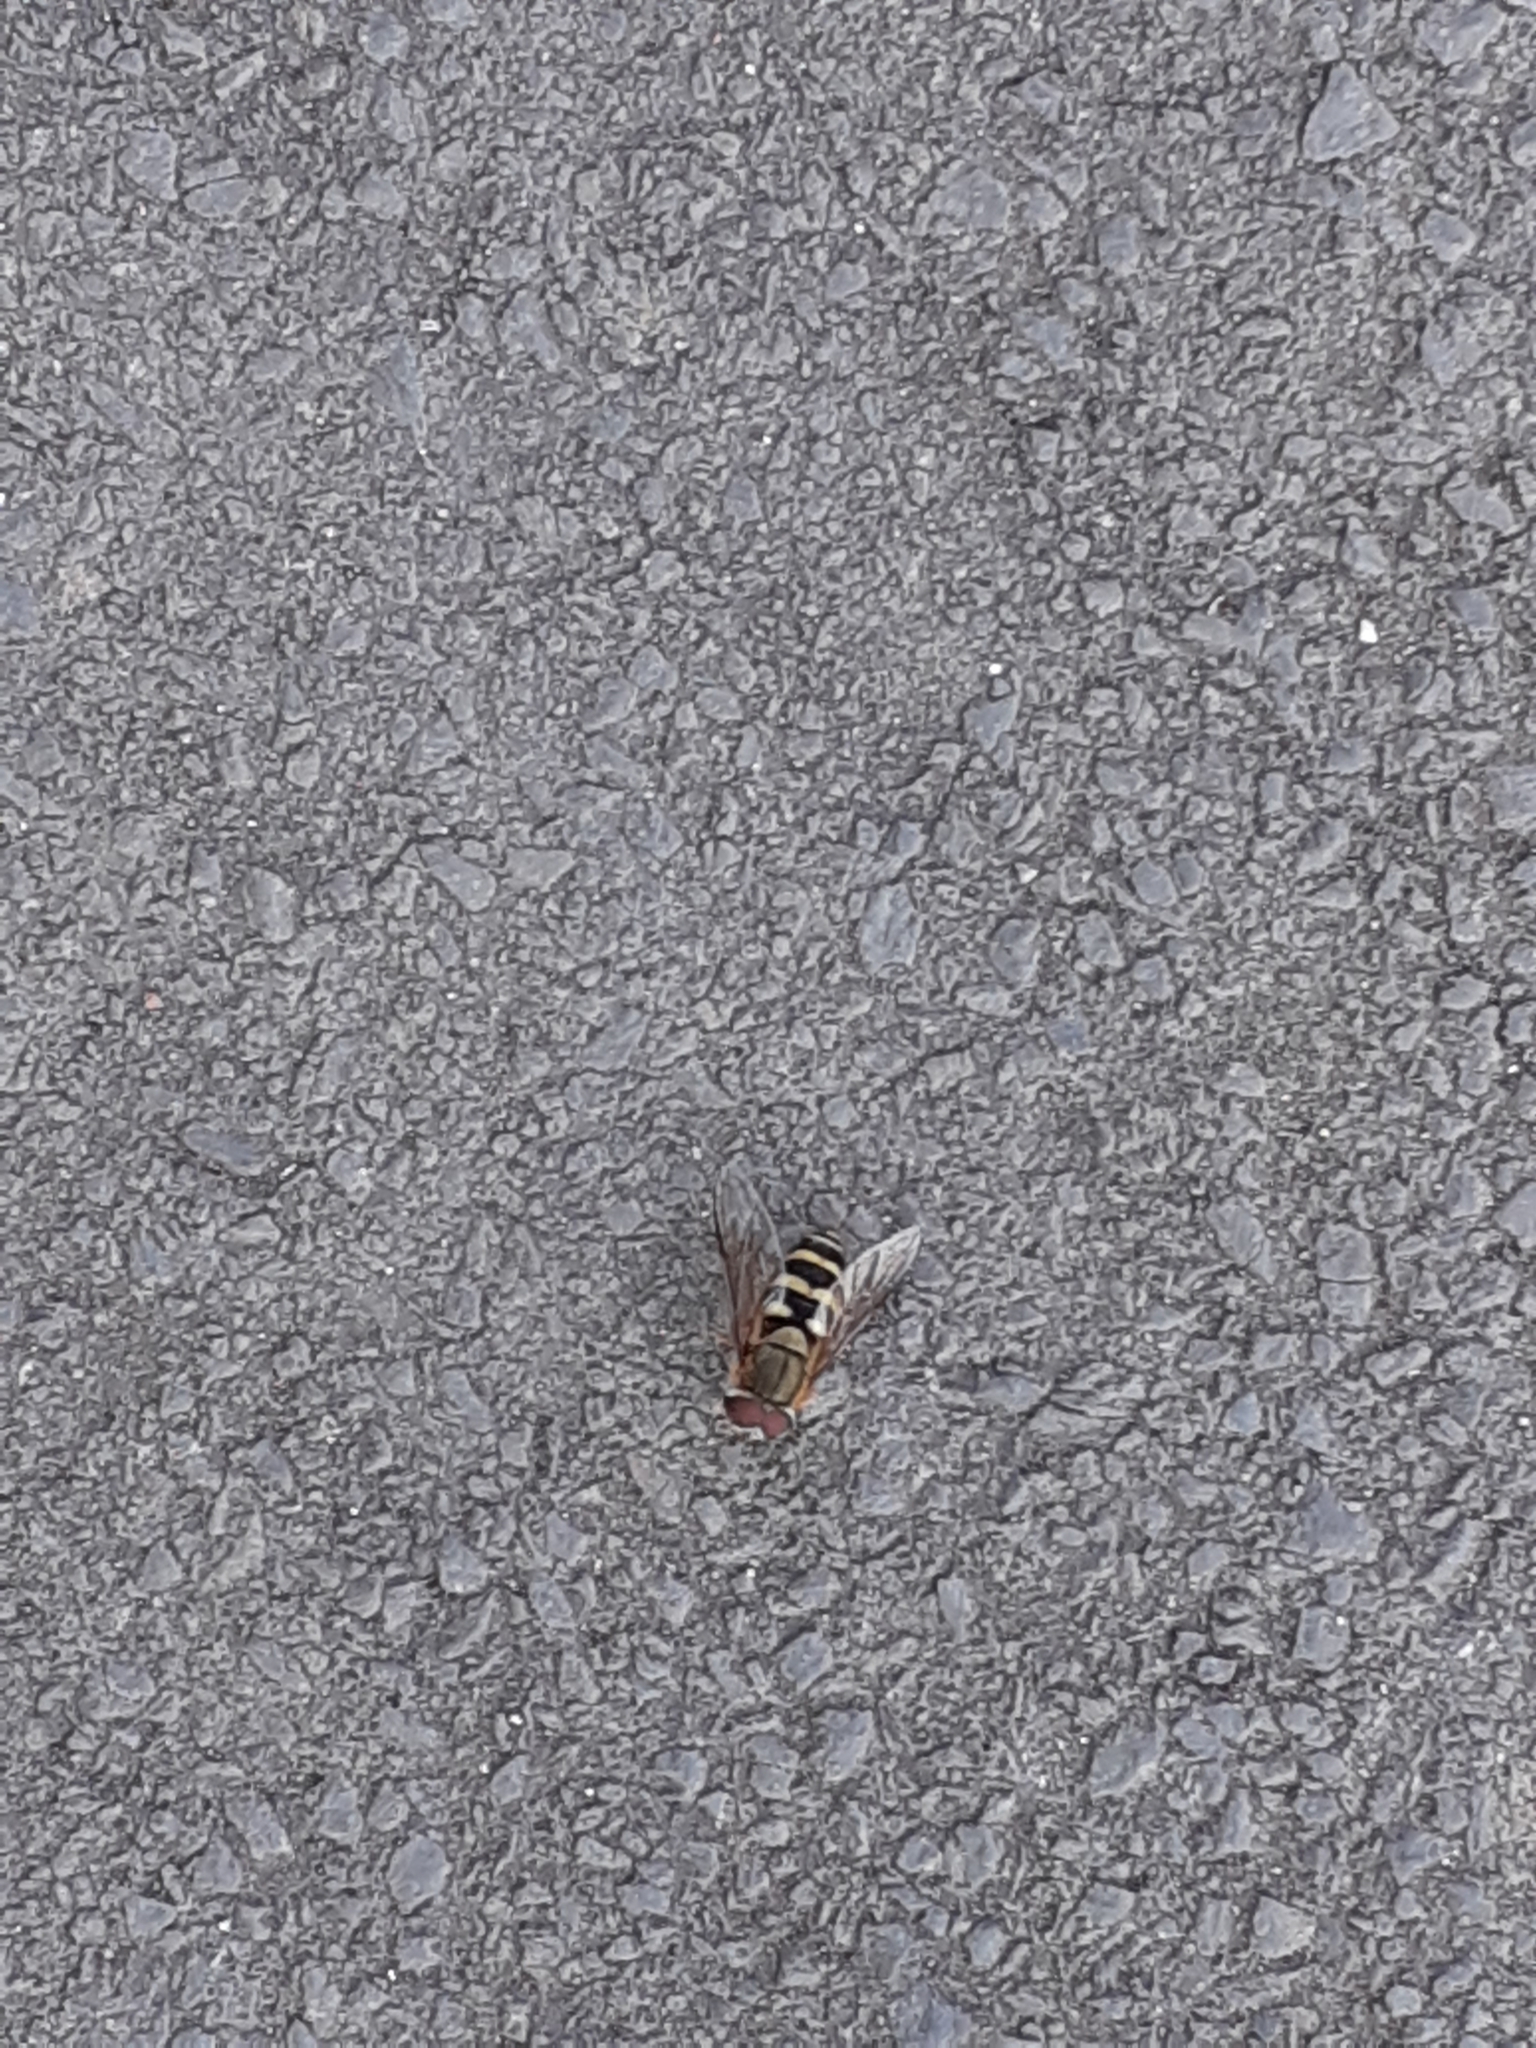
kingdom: Animalia
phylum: Arthropoda
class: Insecta
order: Diptera
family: Syrphidae
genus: Syrphus
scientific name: Syrphus
